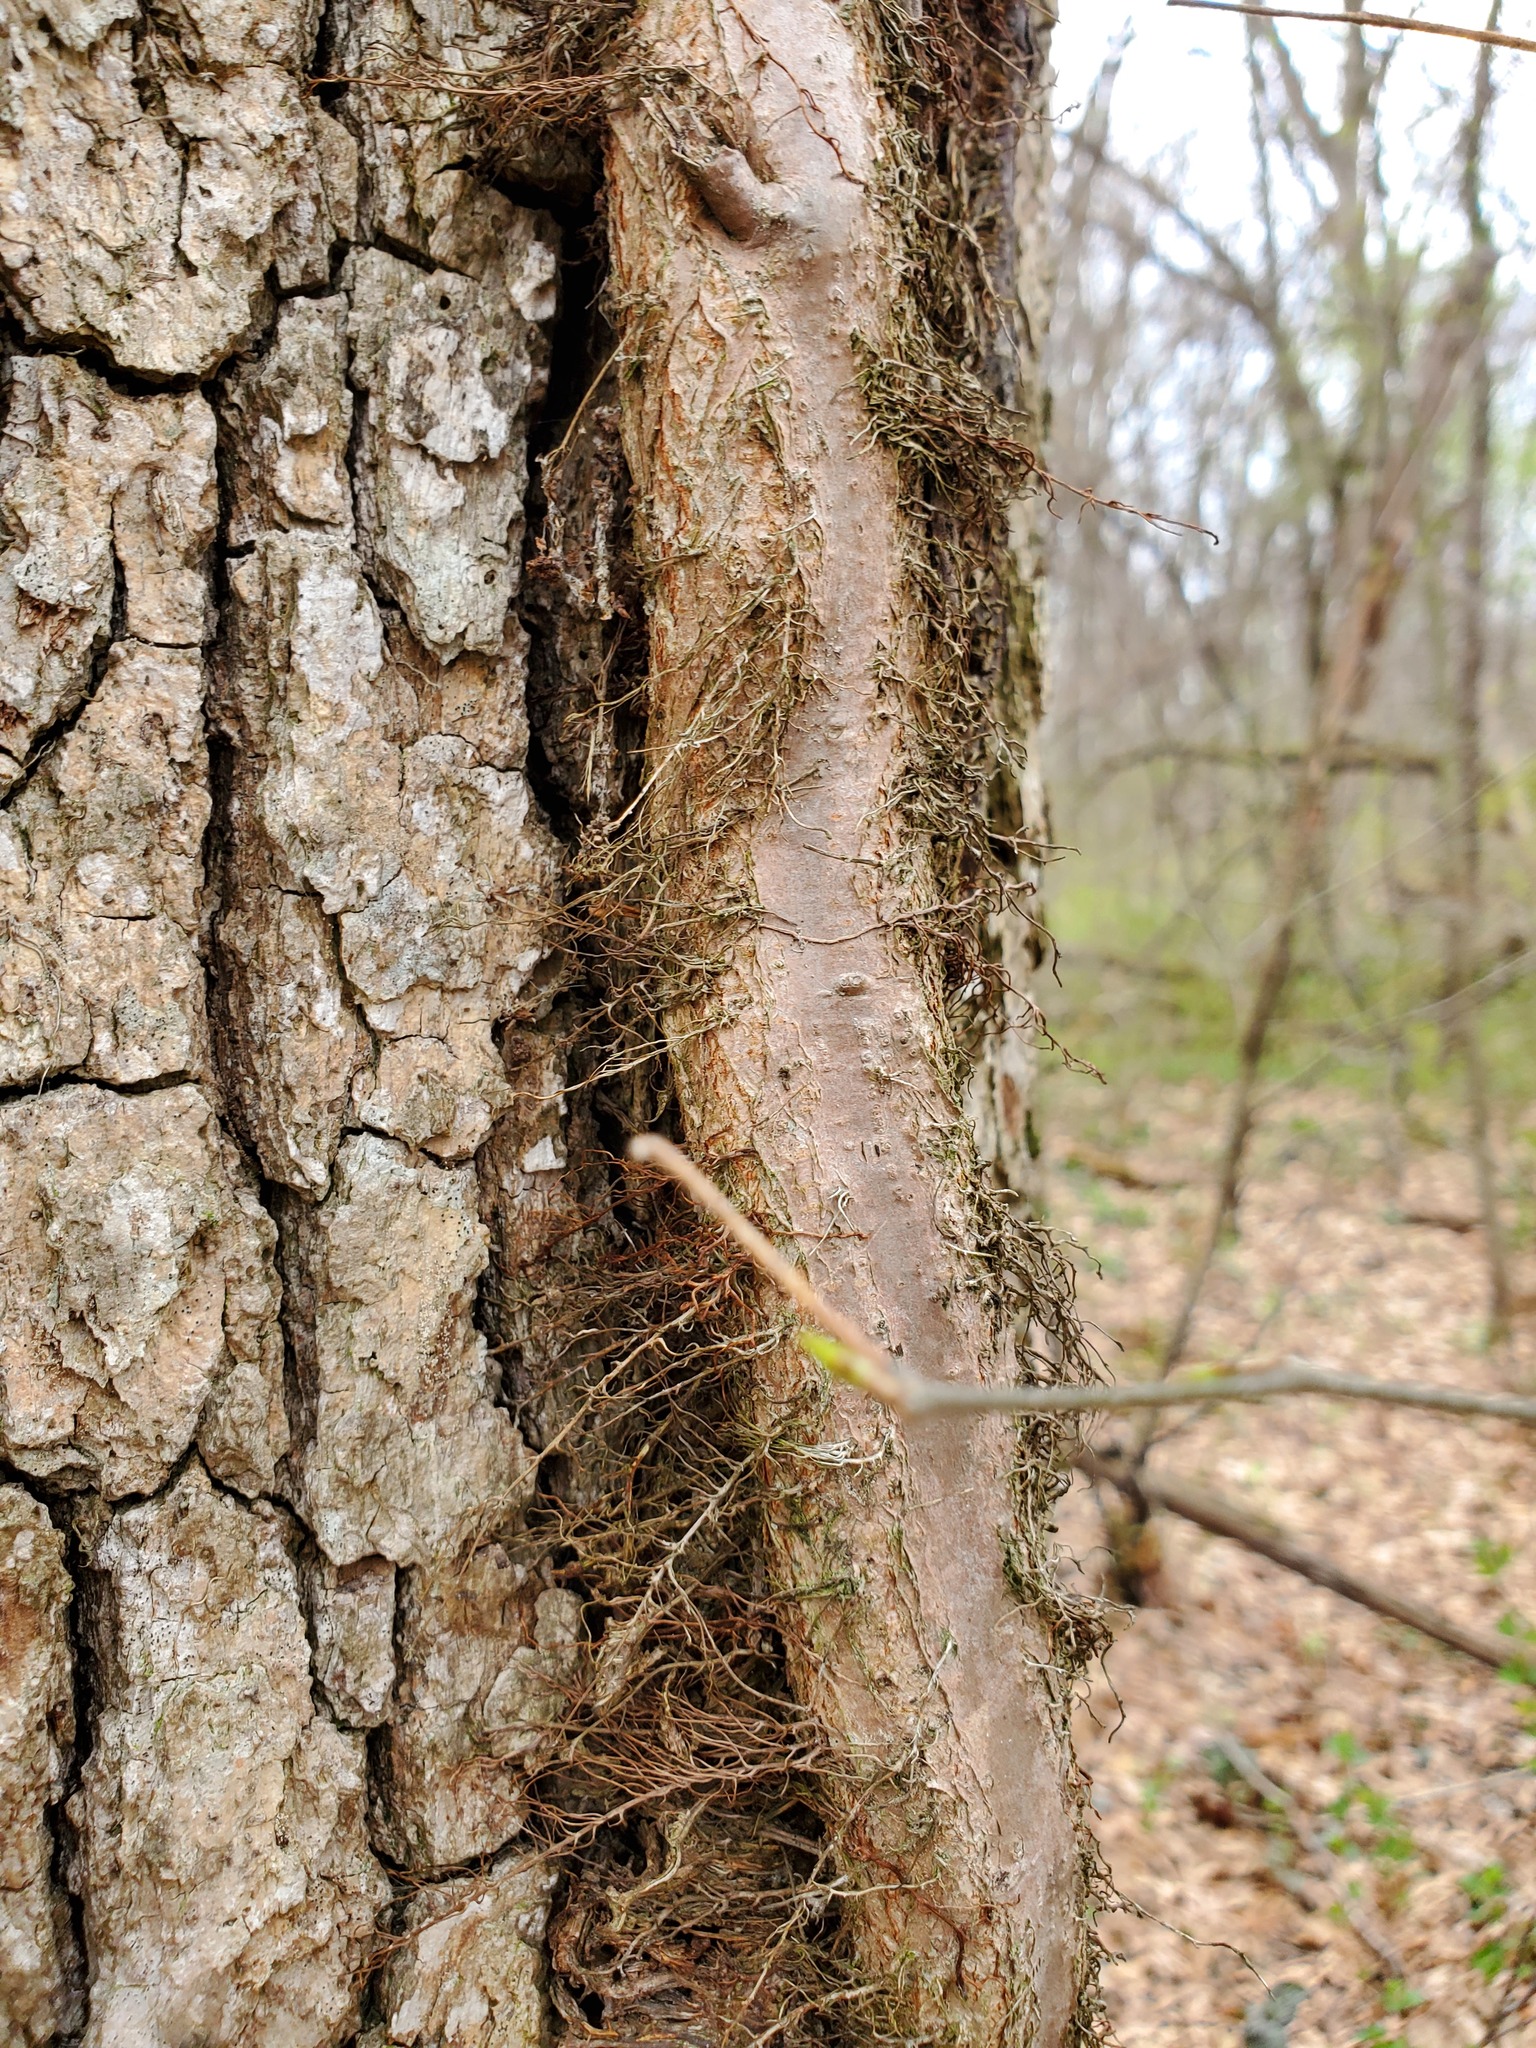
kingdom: Plantae
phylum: Tracheophyta
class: Magnoliopsida
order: Sapindales
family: Anacardiaceae
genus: Toxicodendron
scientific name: Toxicodendron radicans
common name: Poison ivy
